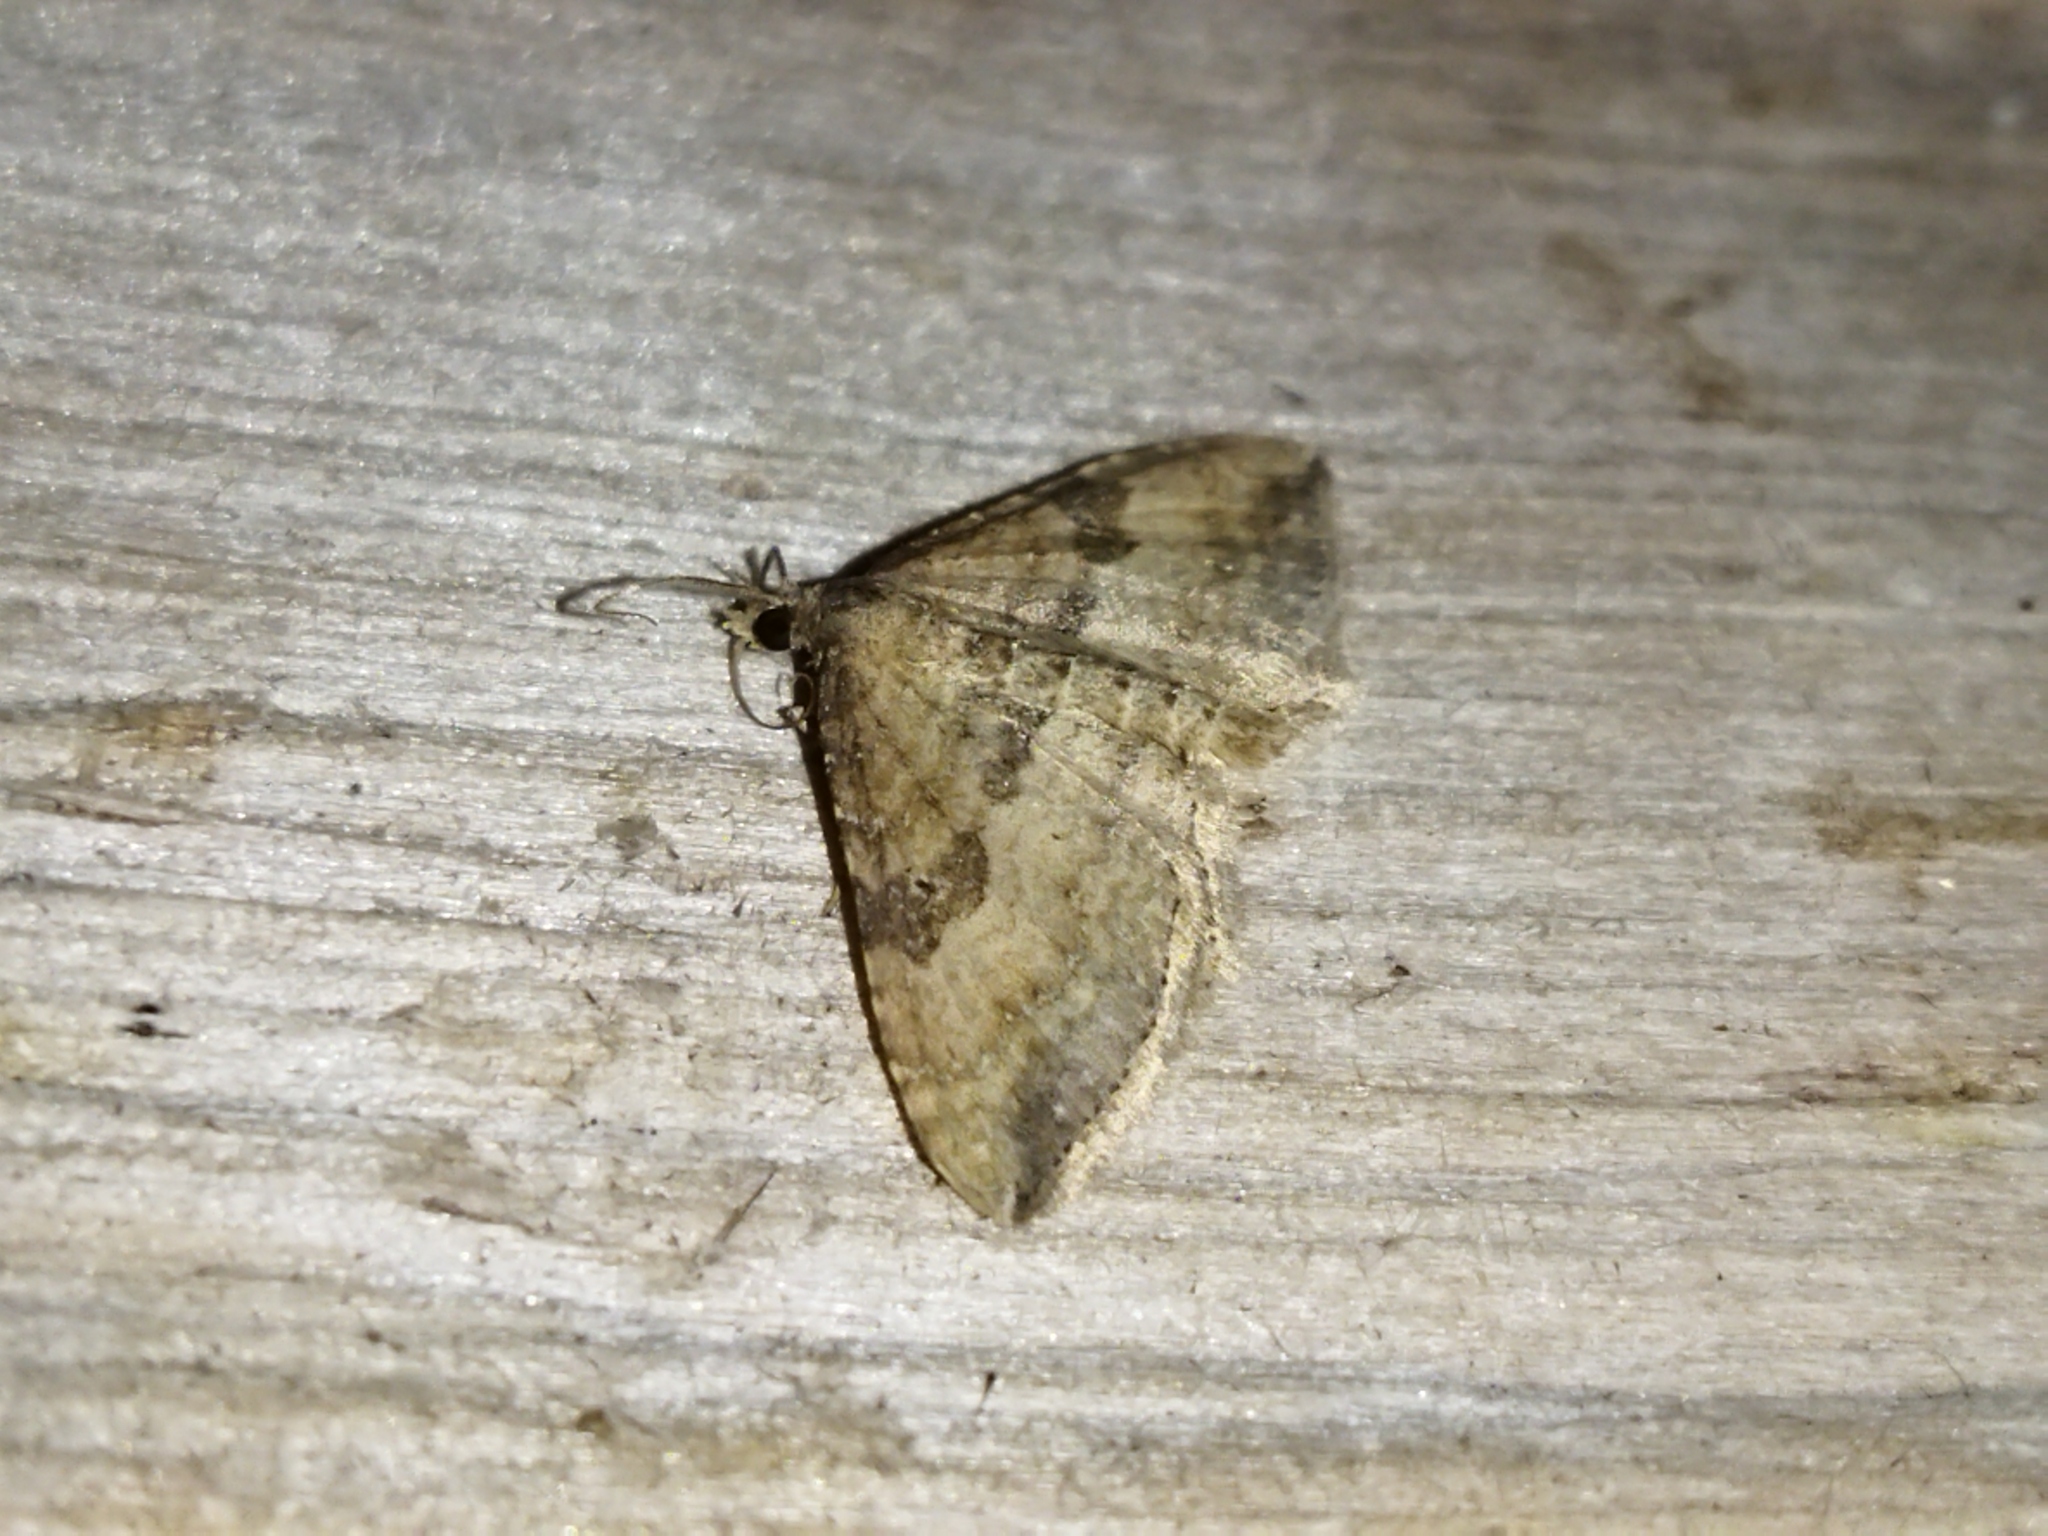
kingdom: Animalia
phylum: Arthropoda
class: Insecta
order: Lepidoptera
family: Geometridae
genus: Orthonama
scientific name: Orthonama obstipata
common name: The gem
